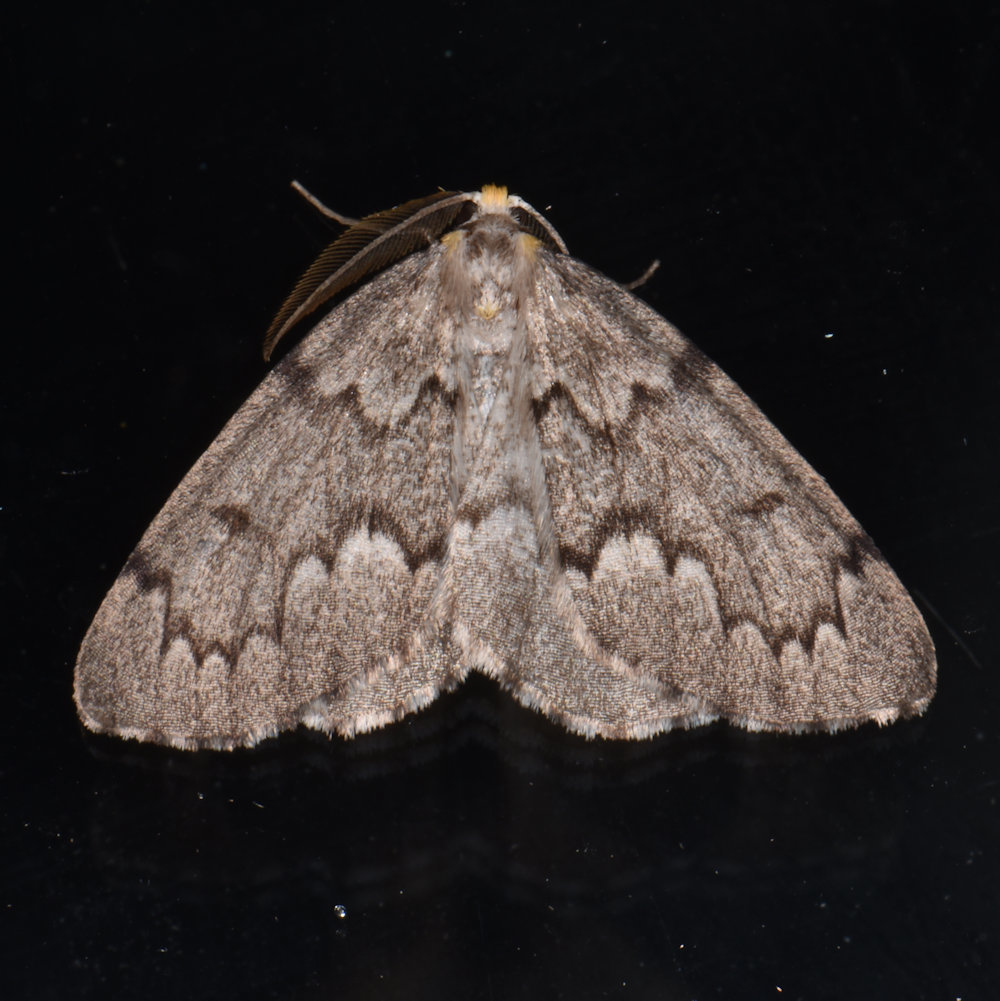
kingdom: Animalia
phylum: Arthropoda
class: Insecta
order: Lepidoptera
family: Geometridae
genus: Nepytia
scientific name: Nepytia canosaria
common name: False hemlock looper
